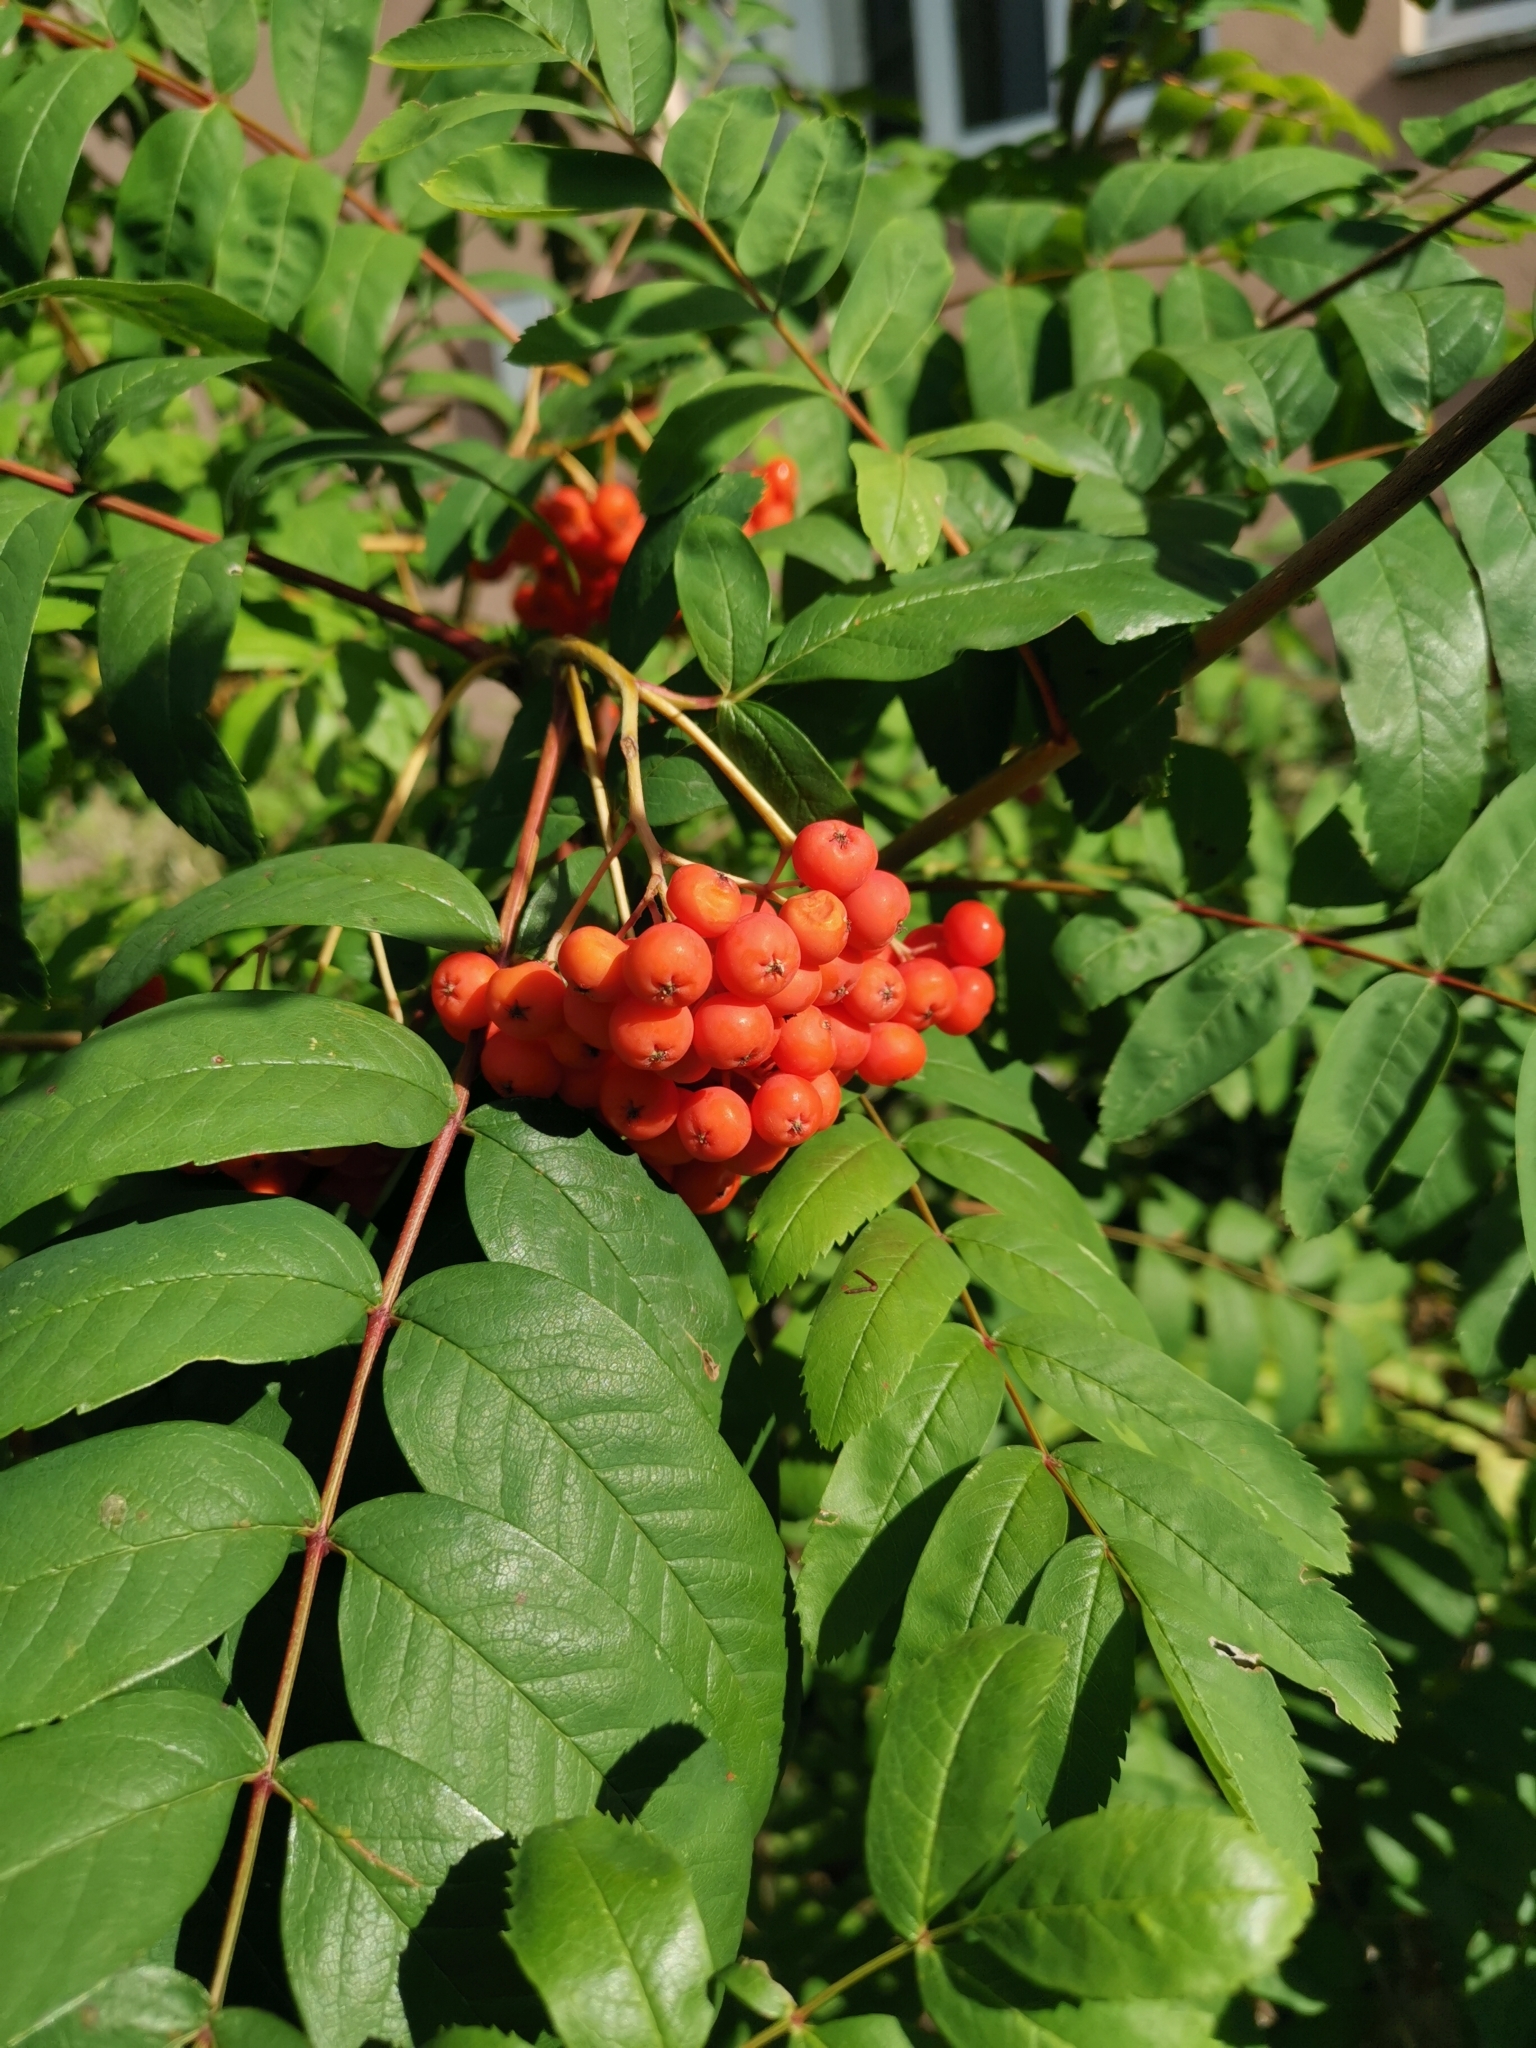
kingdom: Plantae
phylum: Tracheophyta
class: Magnoliopsida
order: Rosales
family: Rosaceae
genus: Sorbus
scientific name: Sorbus aucuparia
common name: Rowan
